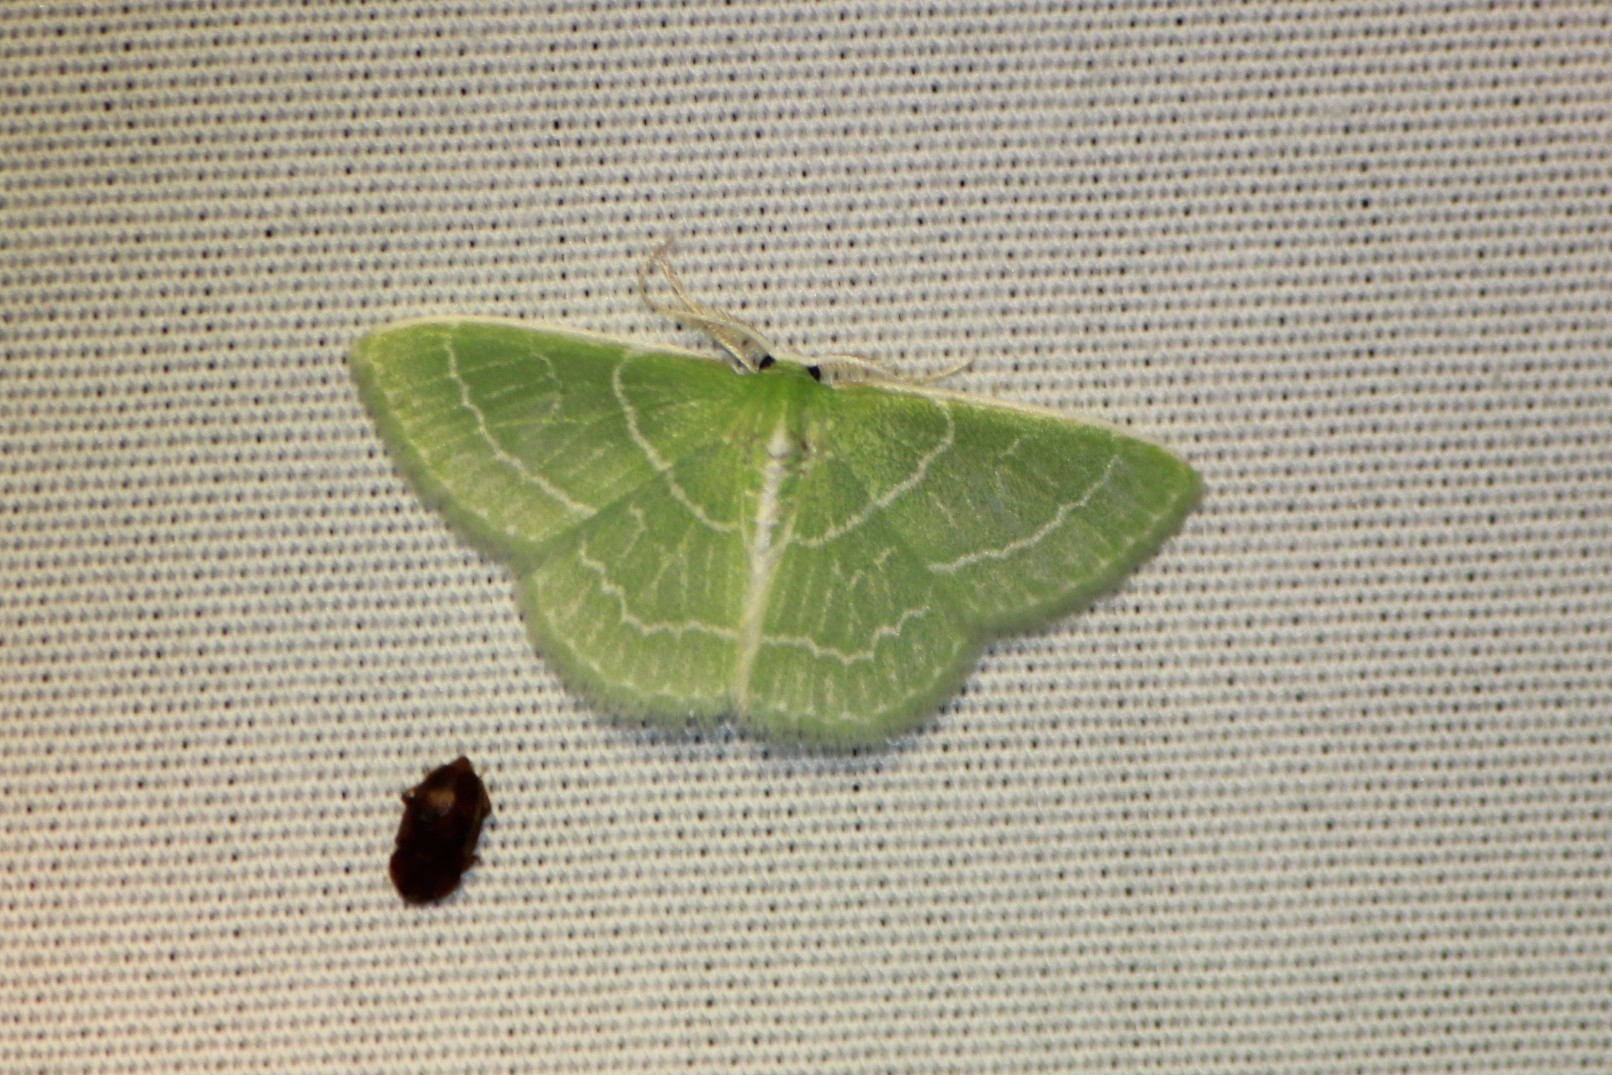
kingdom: Animalia
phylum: Arthropoda
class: Insecta
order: Lepidoptera
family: Geometridae
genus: Synchlora
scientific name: Synchlora aerata
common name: Wavy-lined emerald
